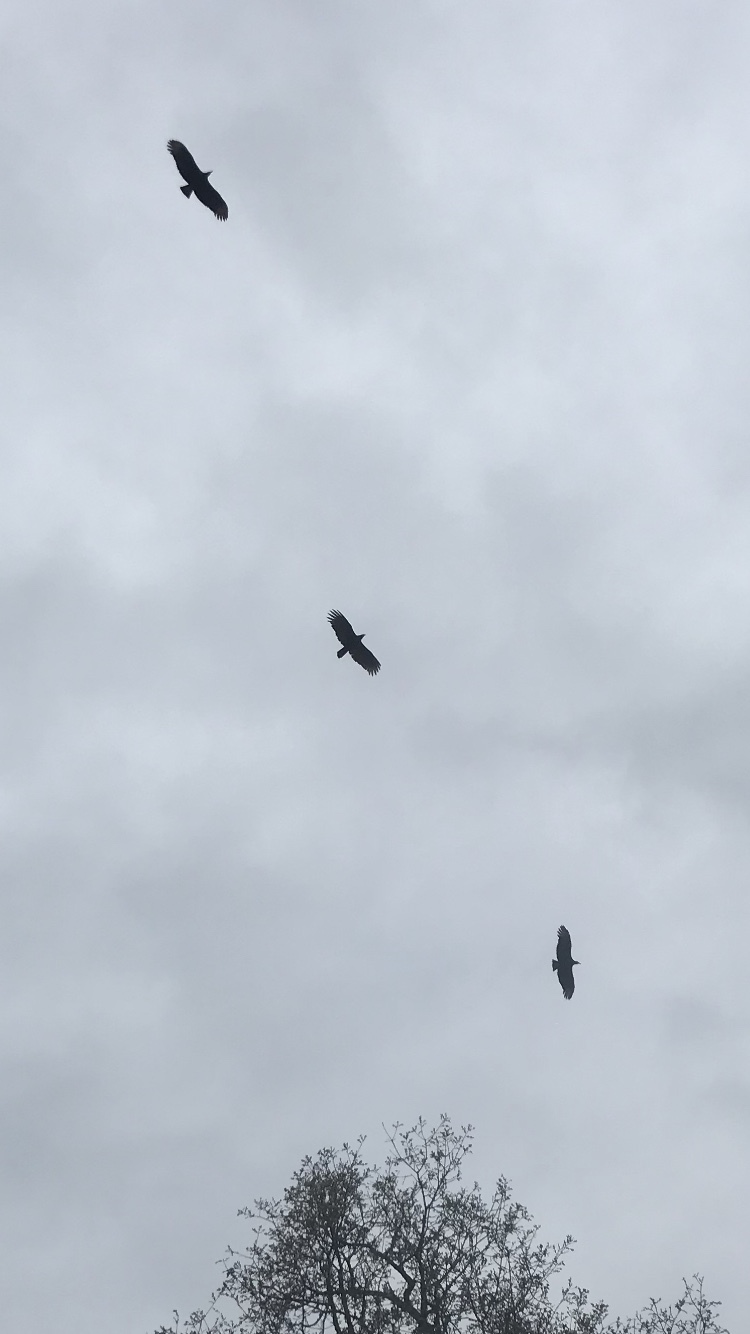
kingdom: Animalia
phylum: Chordata
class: Aves
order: Accipitriformes
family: Cathartidae
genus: Coragyps
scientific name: Coragyps atratus
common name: Black vulture
